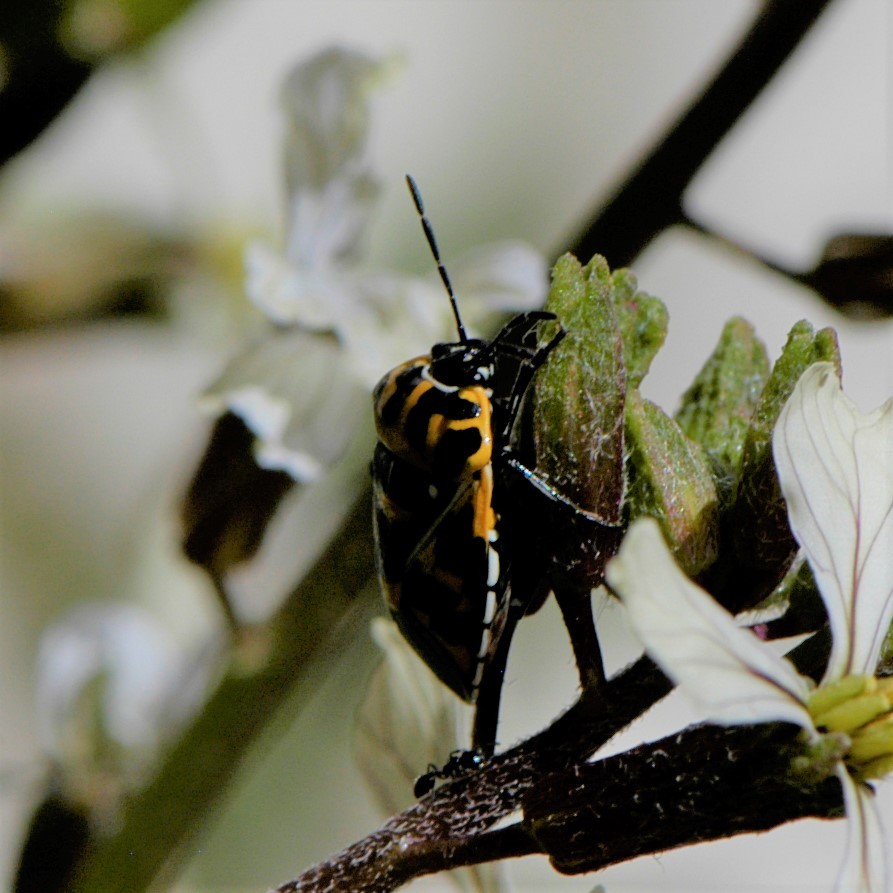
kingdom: Animalia
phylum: Arthropoda
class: Insecta
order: Hemiptera
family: Pentatomidae
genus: Murgantia
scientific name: Murgantia histrionica
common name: Harlequin bug
